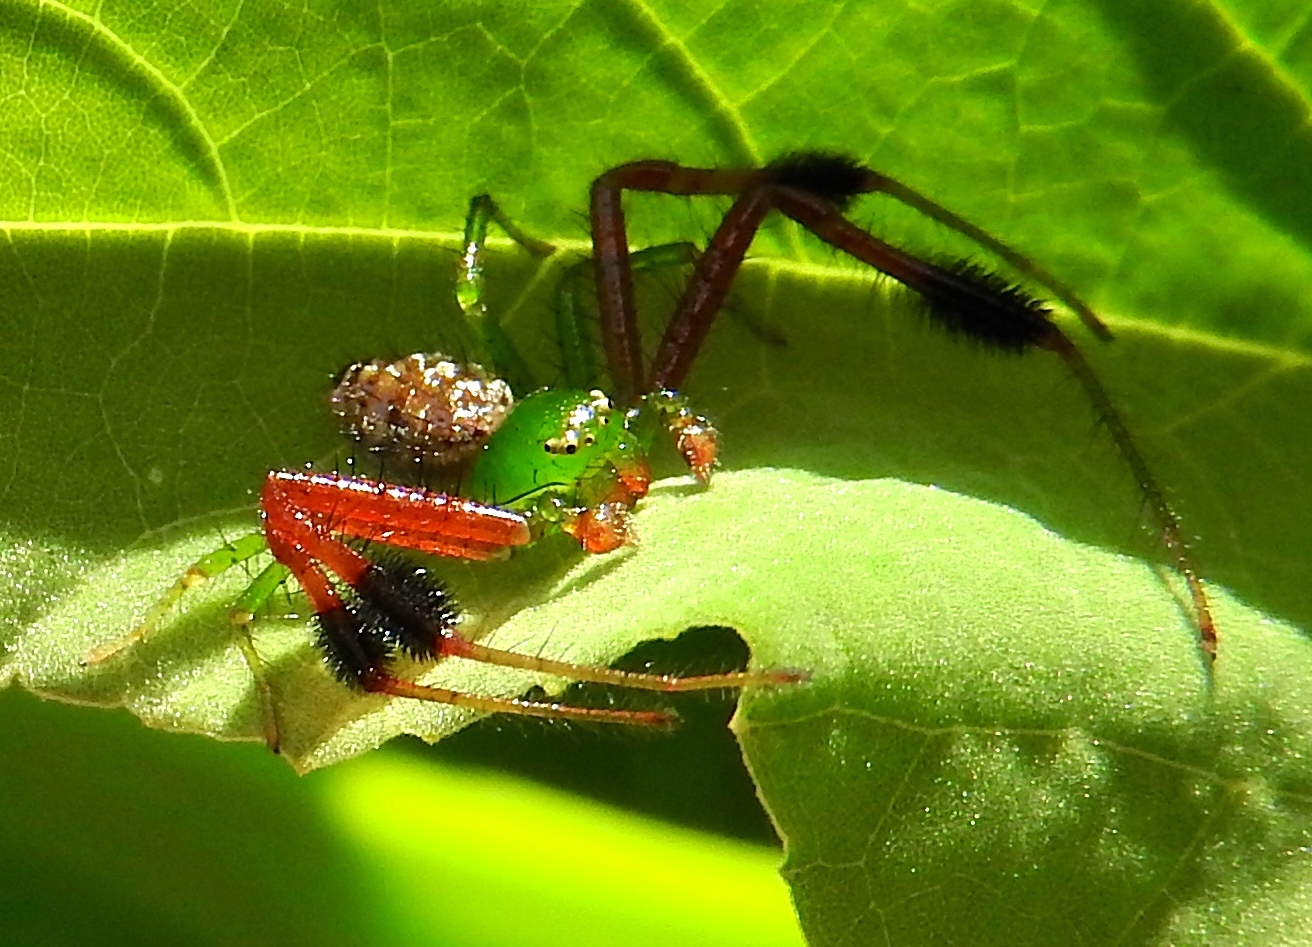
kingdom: Animalia
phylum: Arthropoda
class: Arachnida
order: Araneae
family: Thomisidae
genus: Parasynema
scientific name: Parasynema cirripes
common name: Crab spiders
